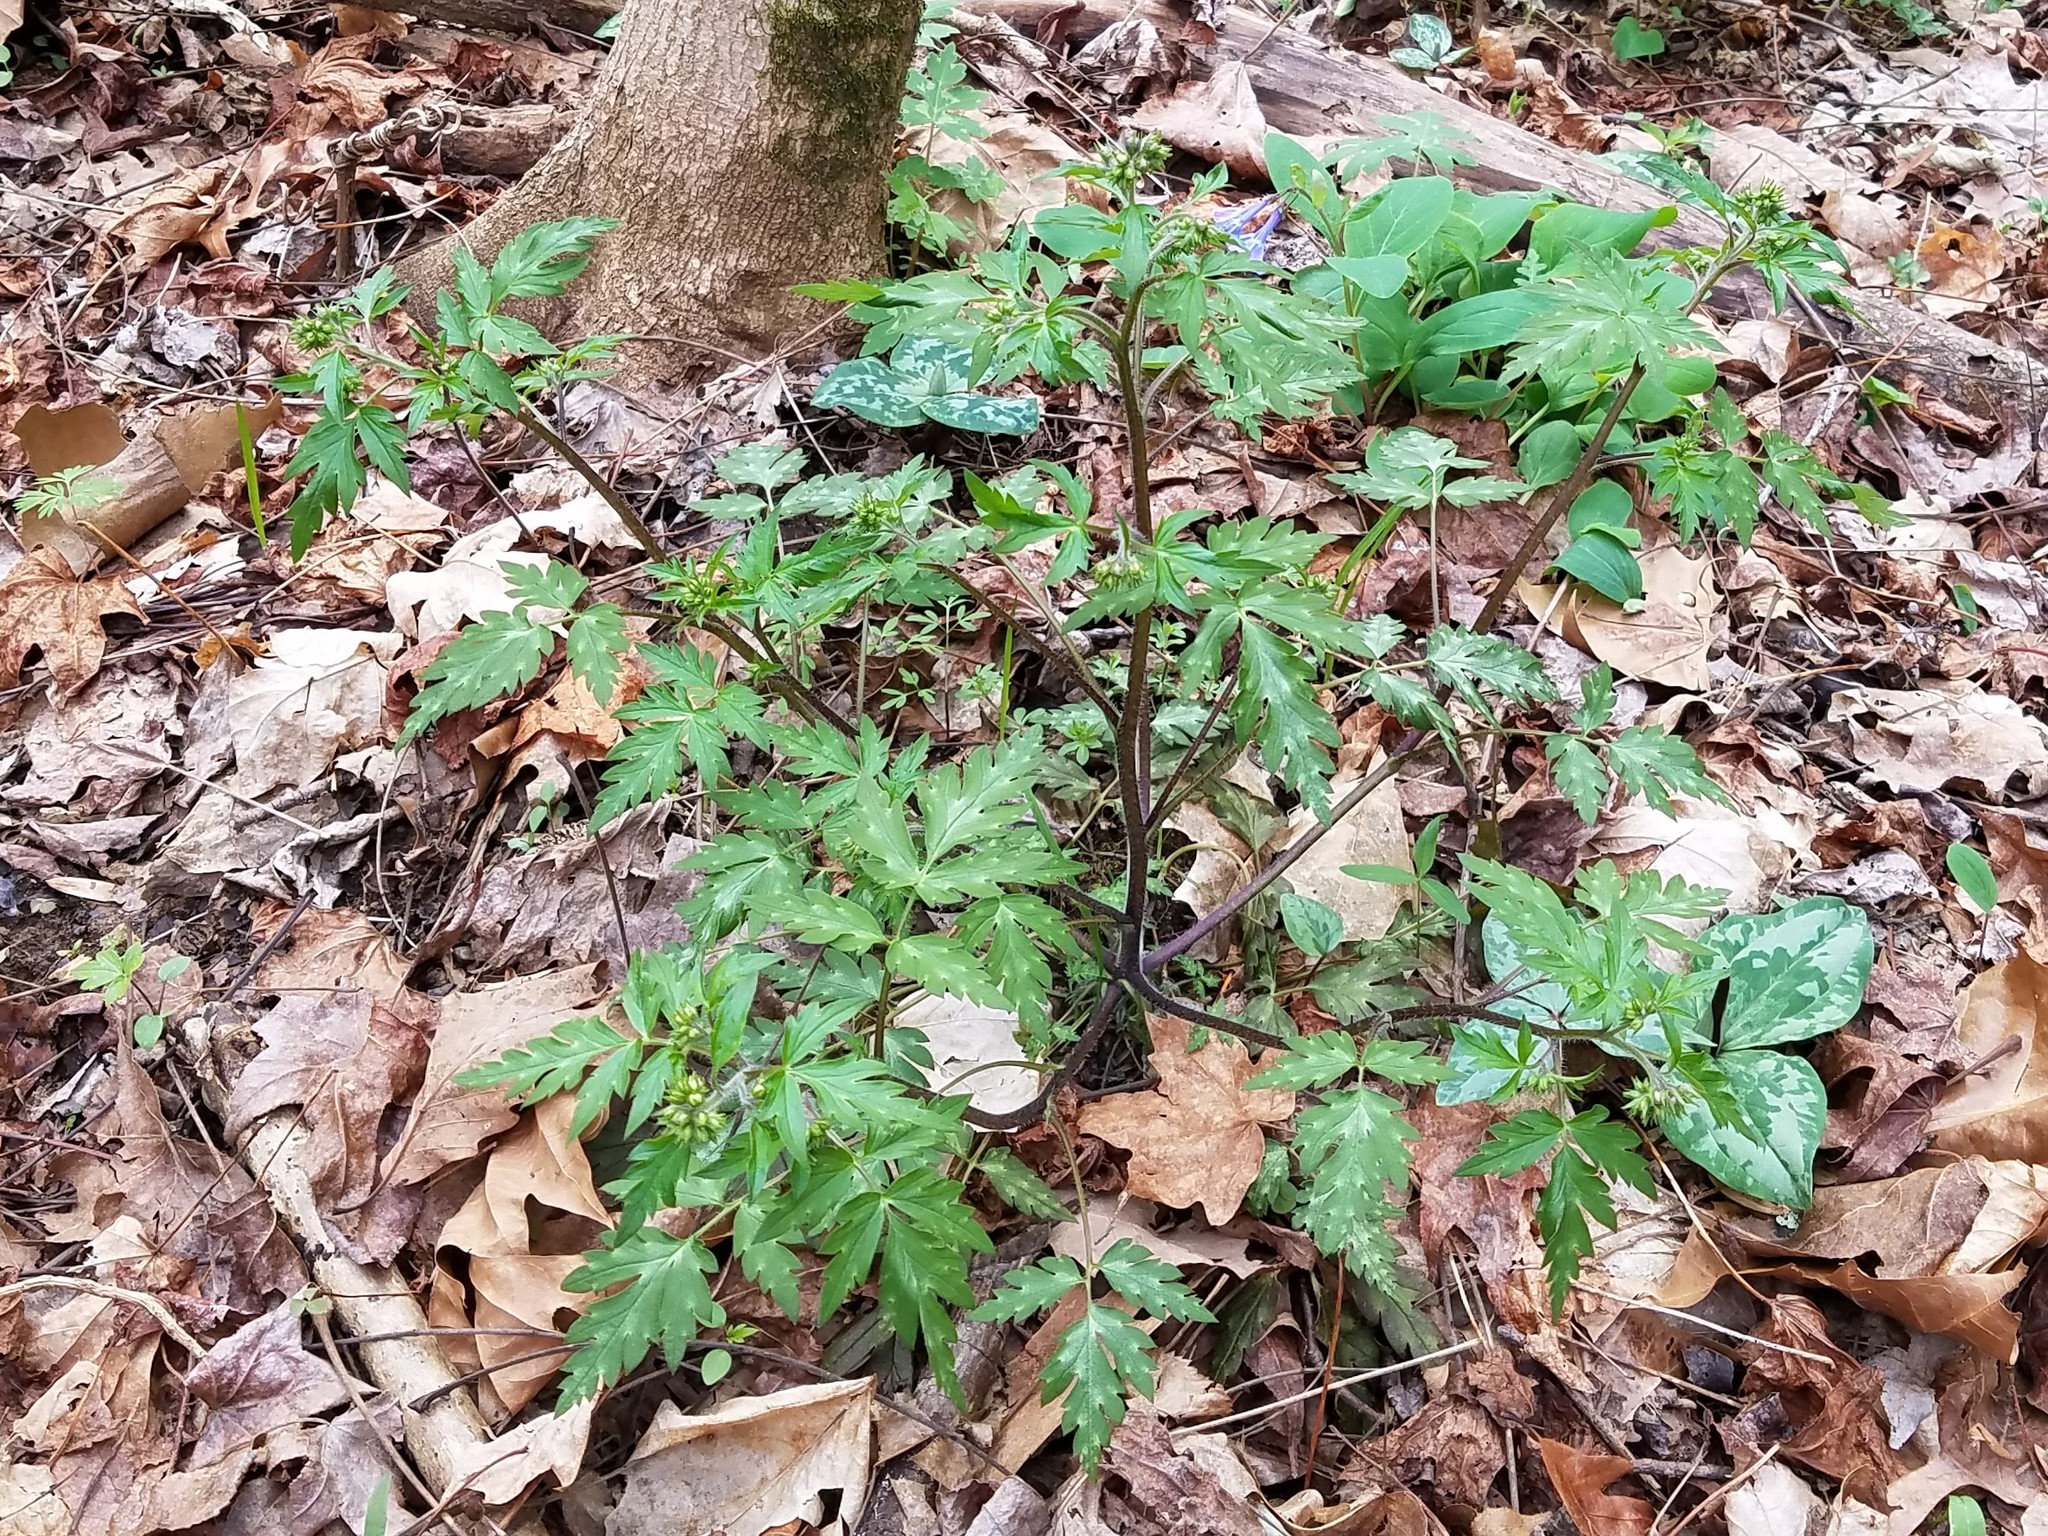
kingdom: Plantae
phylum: Tracheophyta
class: Magnoliopsida
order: Boraginales
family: Hydrophyllaceae
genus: Phacelia
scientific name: Phacelia bipinnatifida
